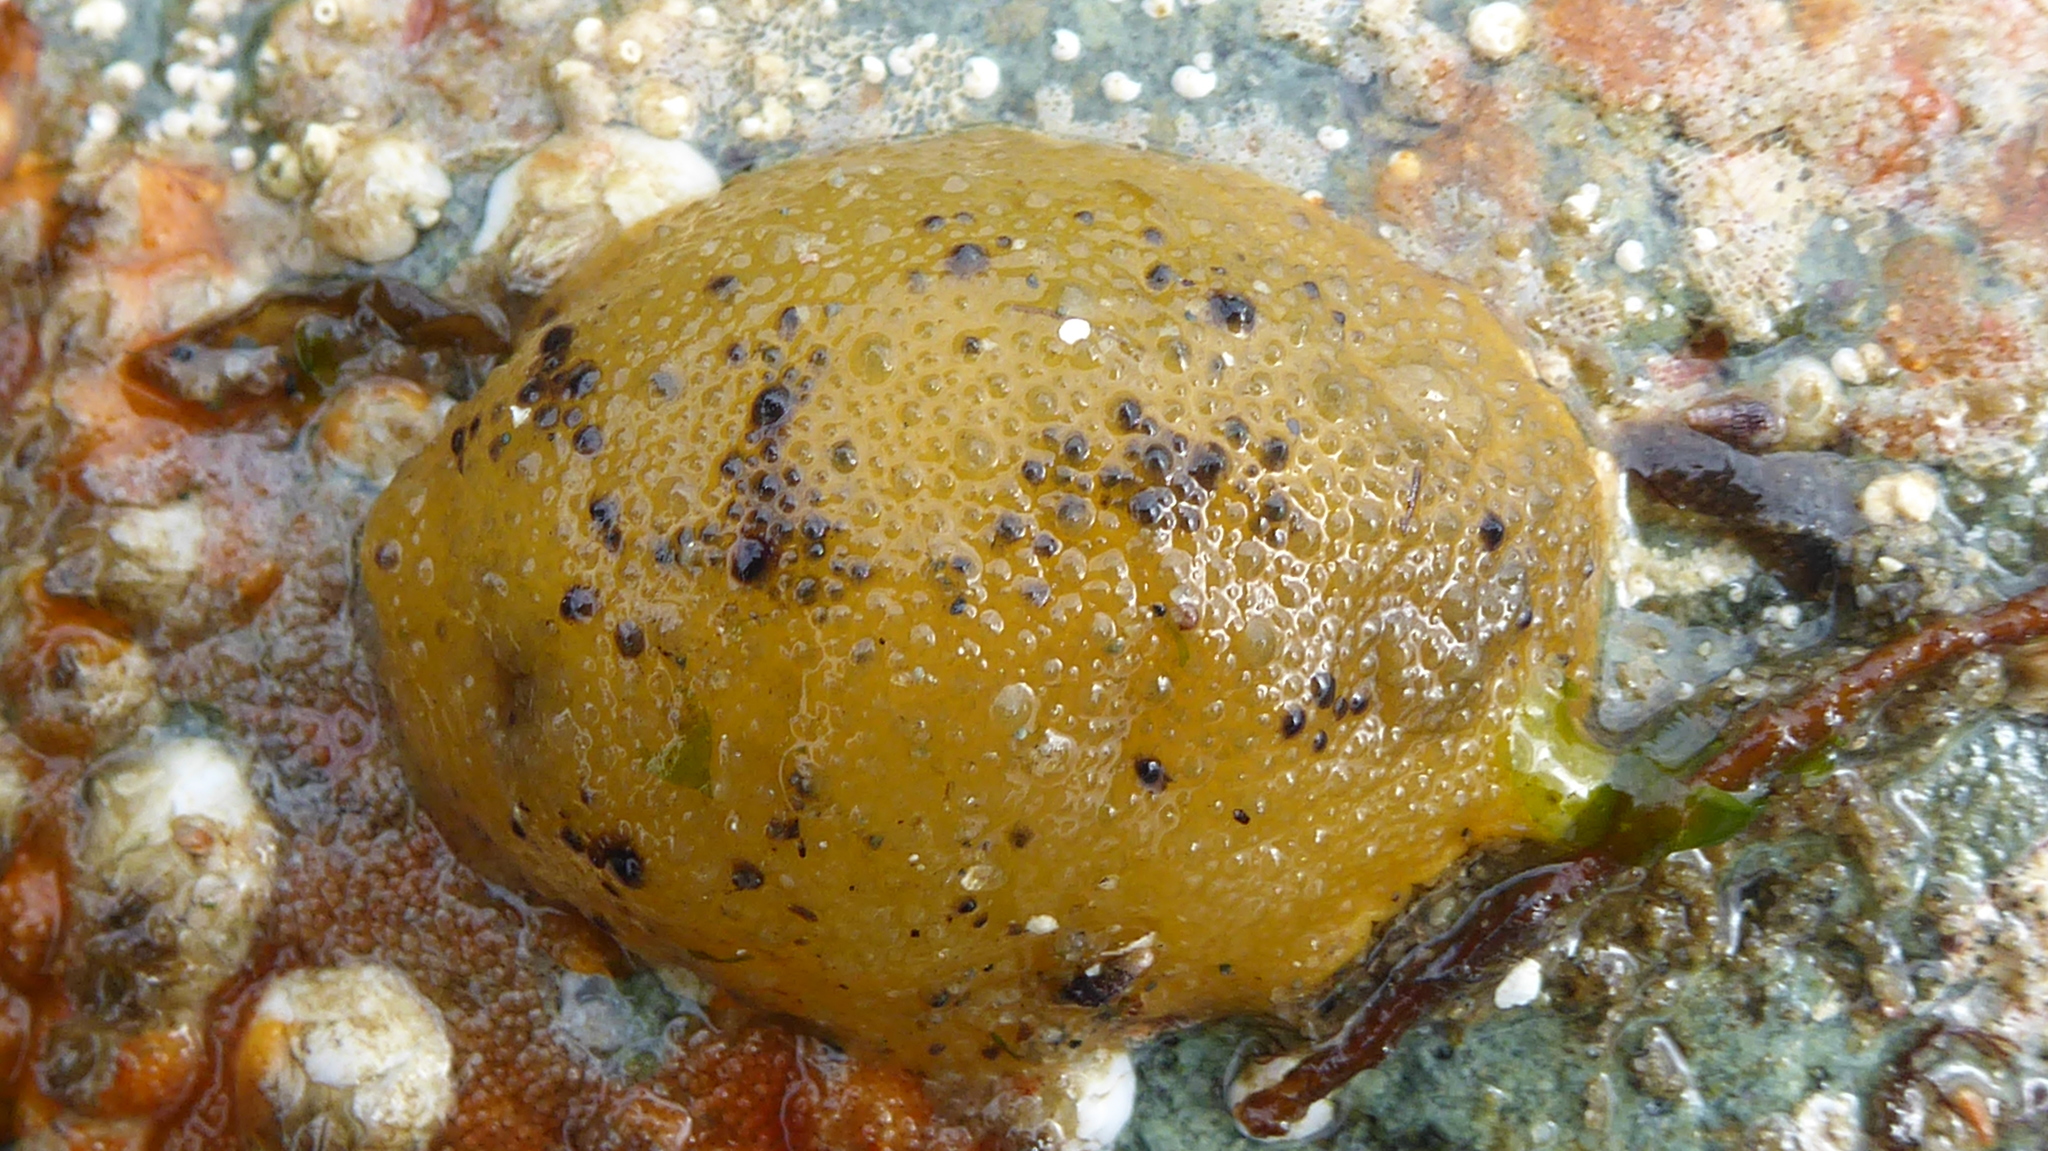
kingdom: Animalia
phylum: Mollusca
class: Gastropoda
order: Nudibranchia
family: Dorididae
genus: Doris
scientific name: Doris montereyensis
